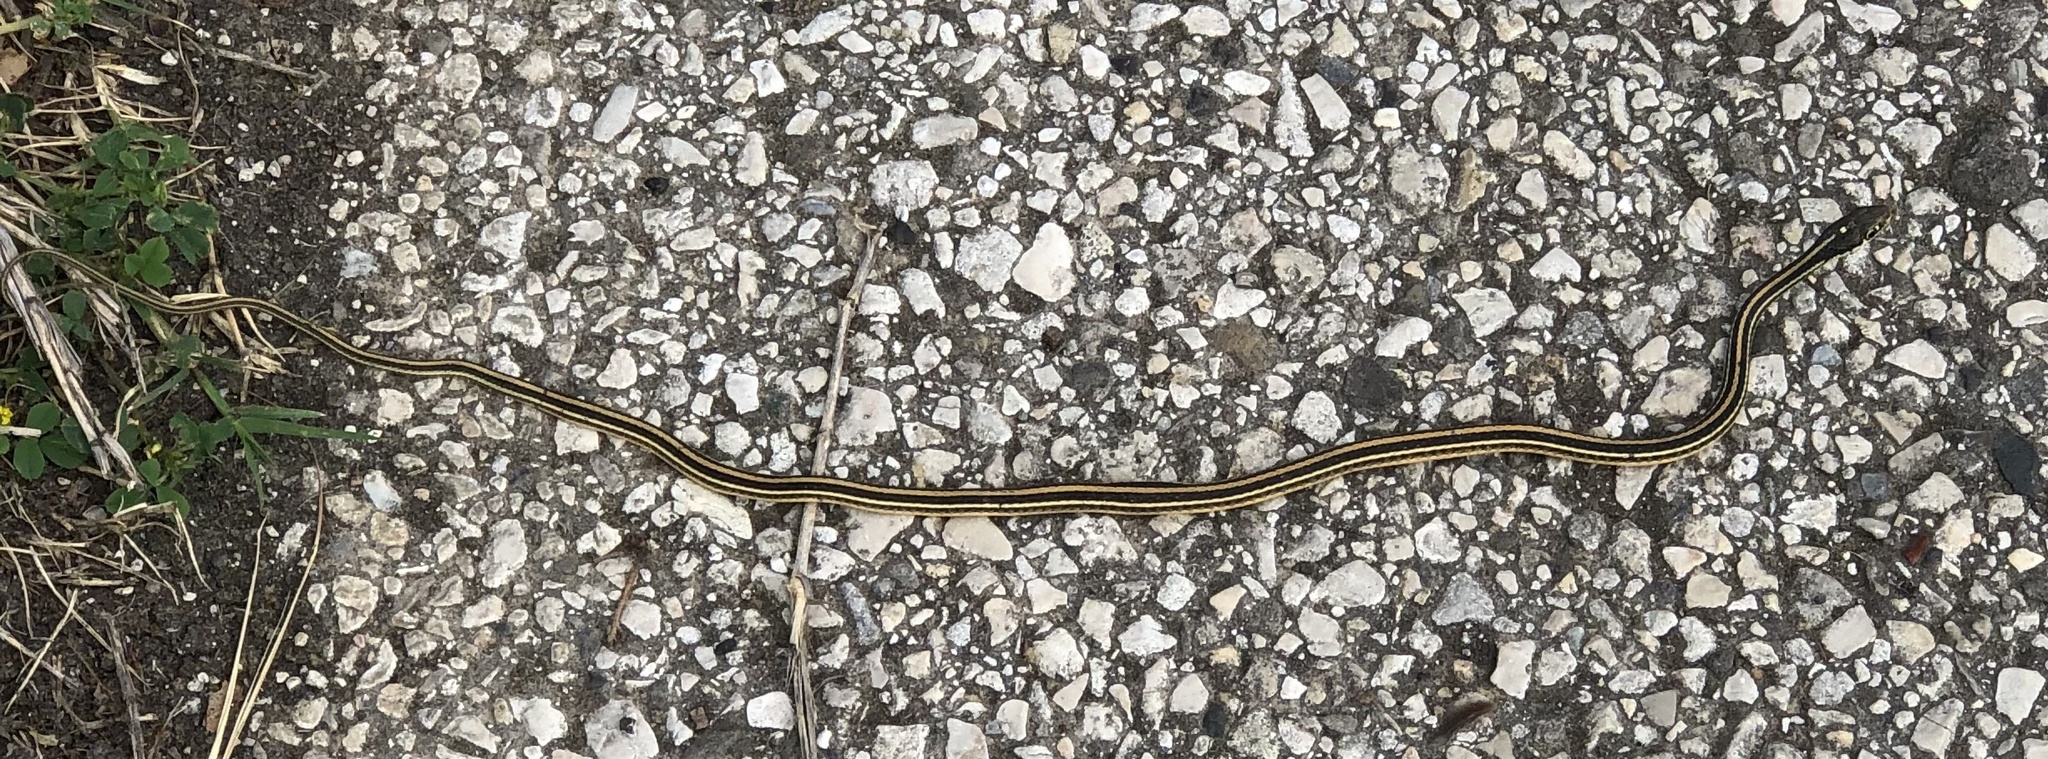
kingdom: Animalia
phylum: Chordata
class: Squamata
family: Colubridae
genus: Thamnophis
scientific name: Thamnophis proximus
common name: Western ribbon snake
